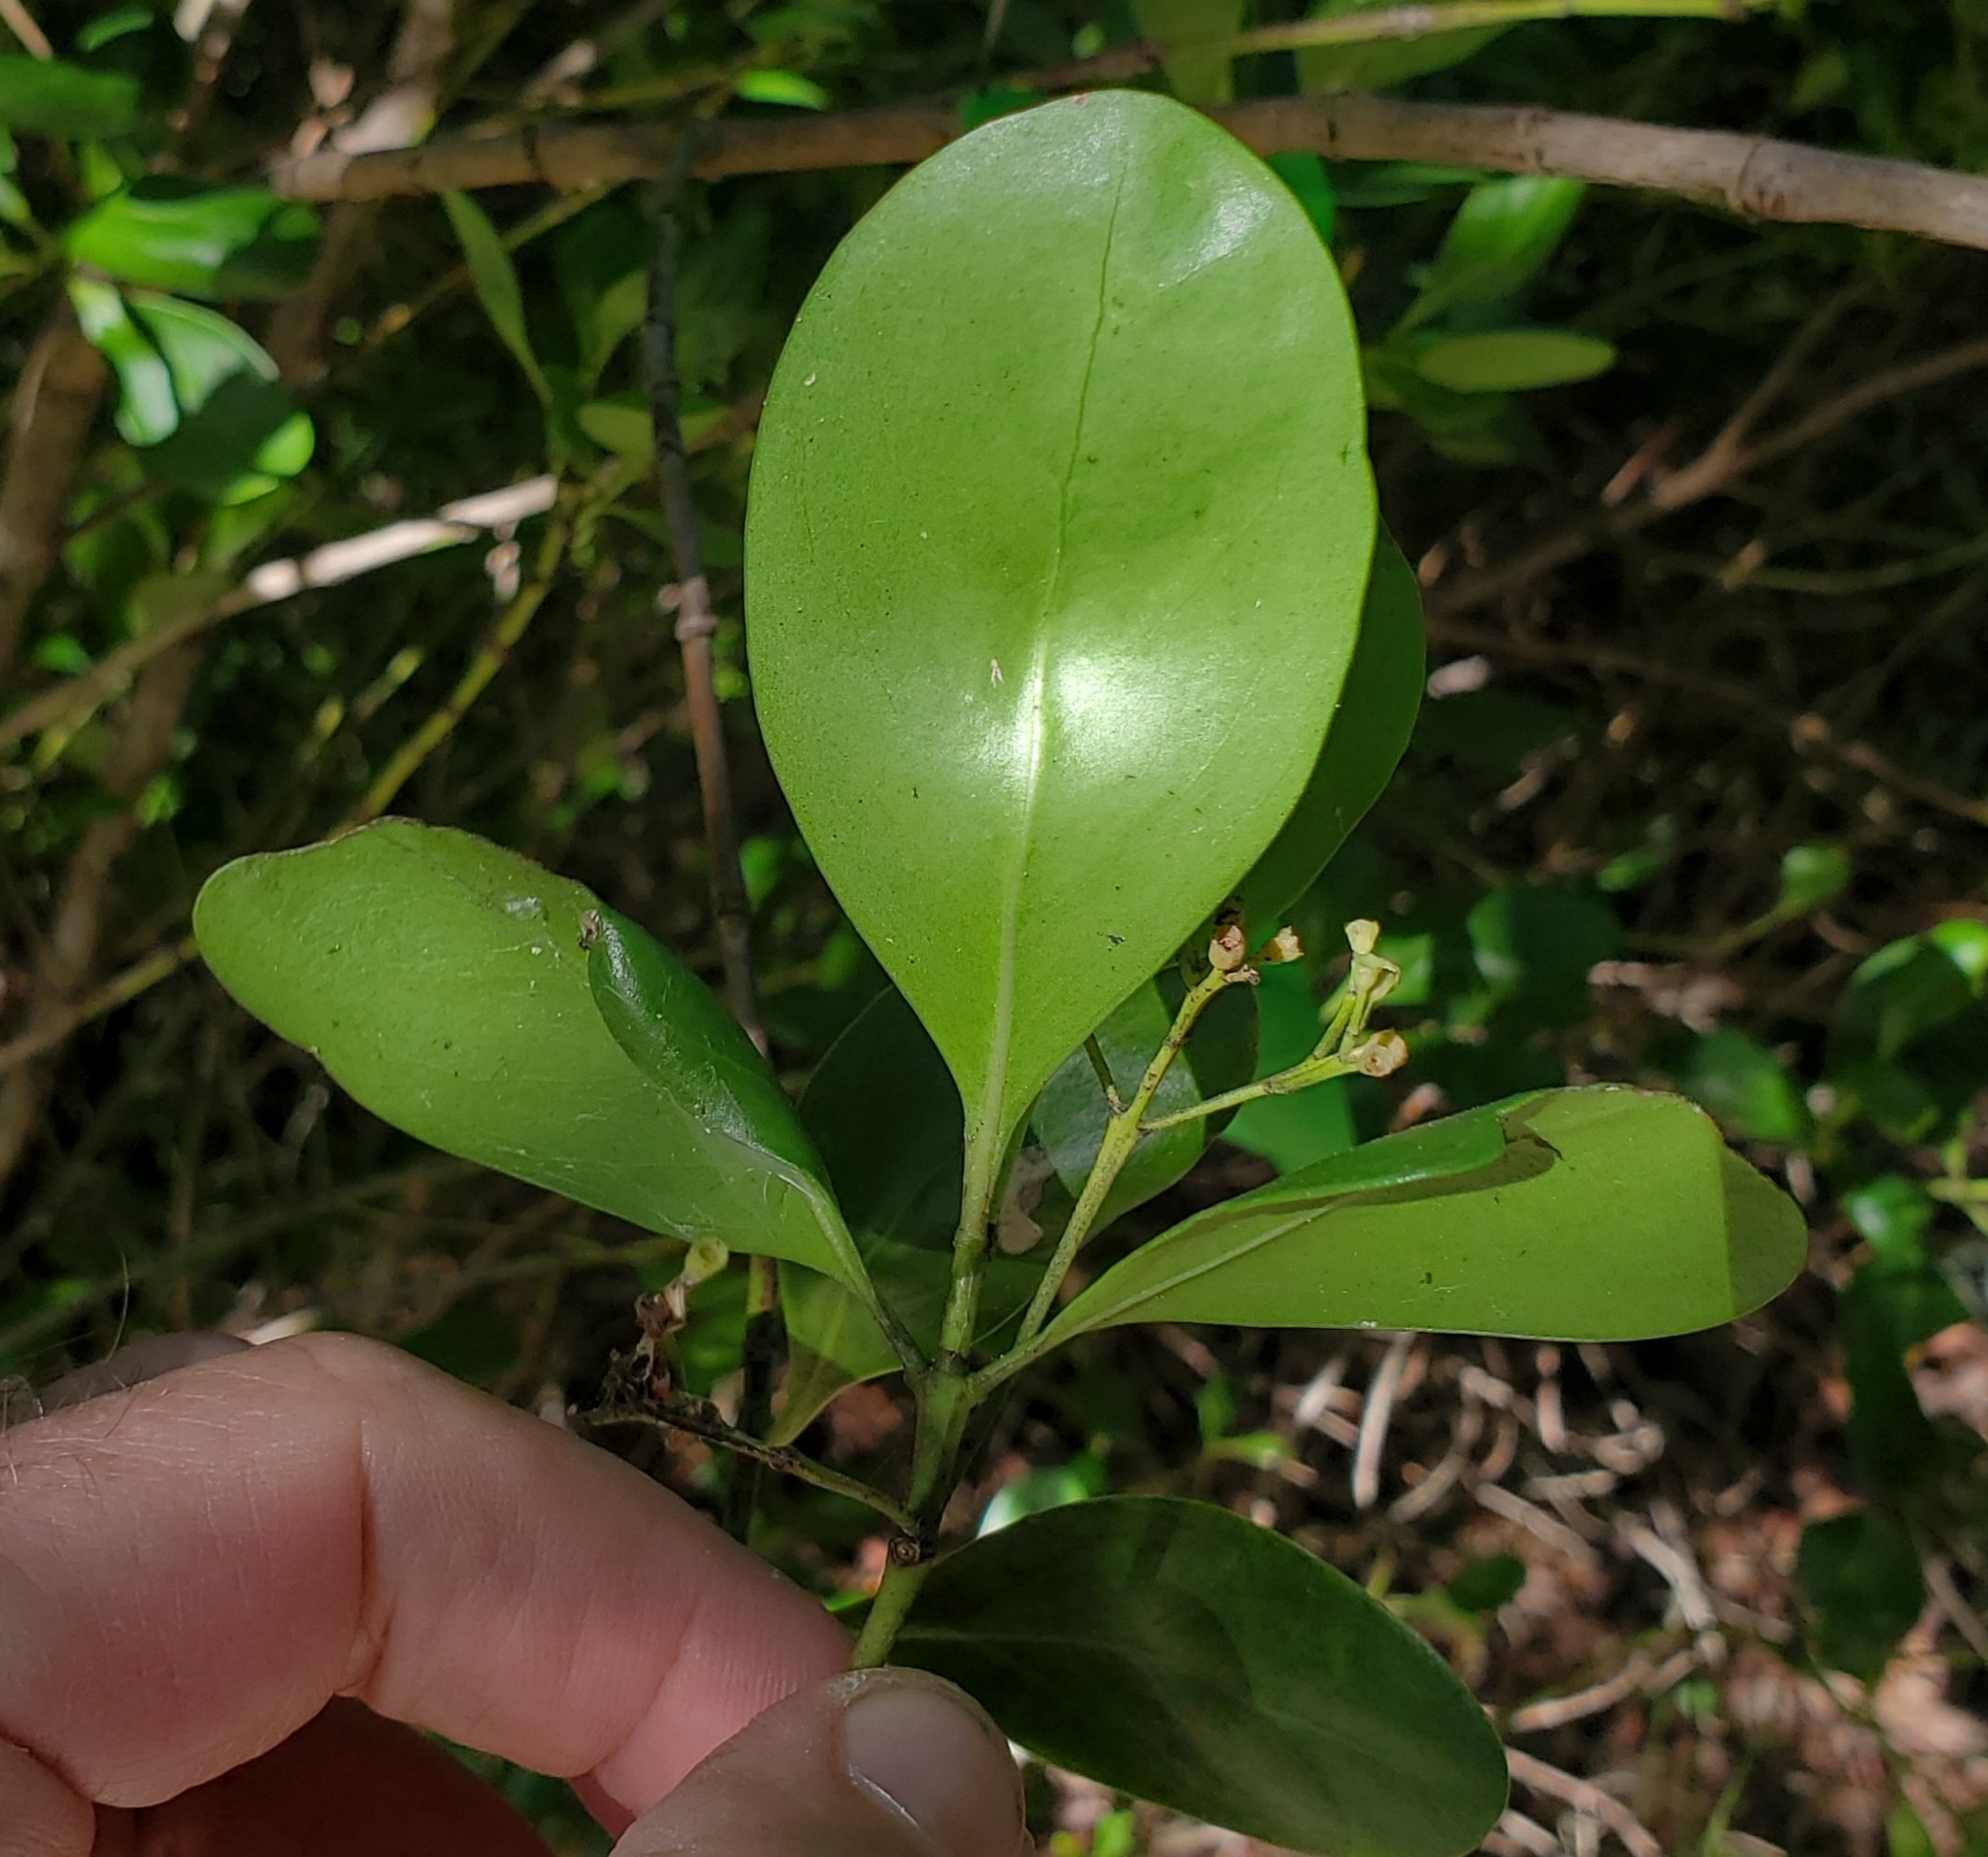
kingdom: Plantae
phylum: Tracheophyta
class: Magnoliopsida
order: Gentianales
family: Rubiaceae
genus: Erithalis
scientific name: Erithalis fruticosa
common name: Candlewood
